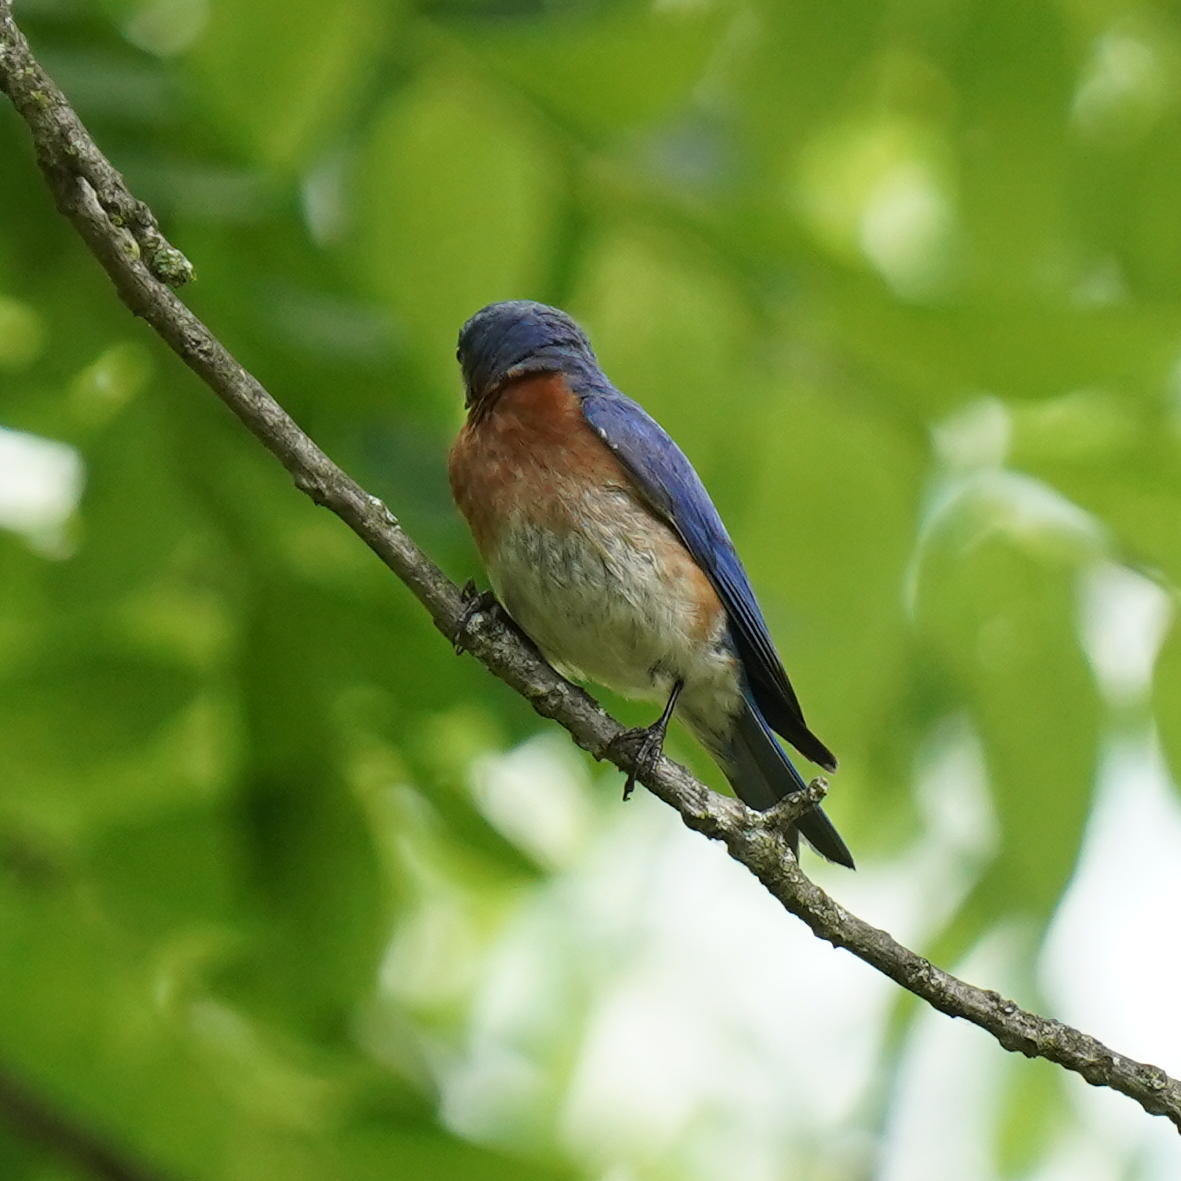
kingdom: Animalia
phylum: Chordata
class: Aves
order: Passeriformes
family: Turdidae
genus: Sialia
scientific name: Sialia sialis
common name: Eastern bluebird
